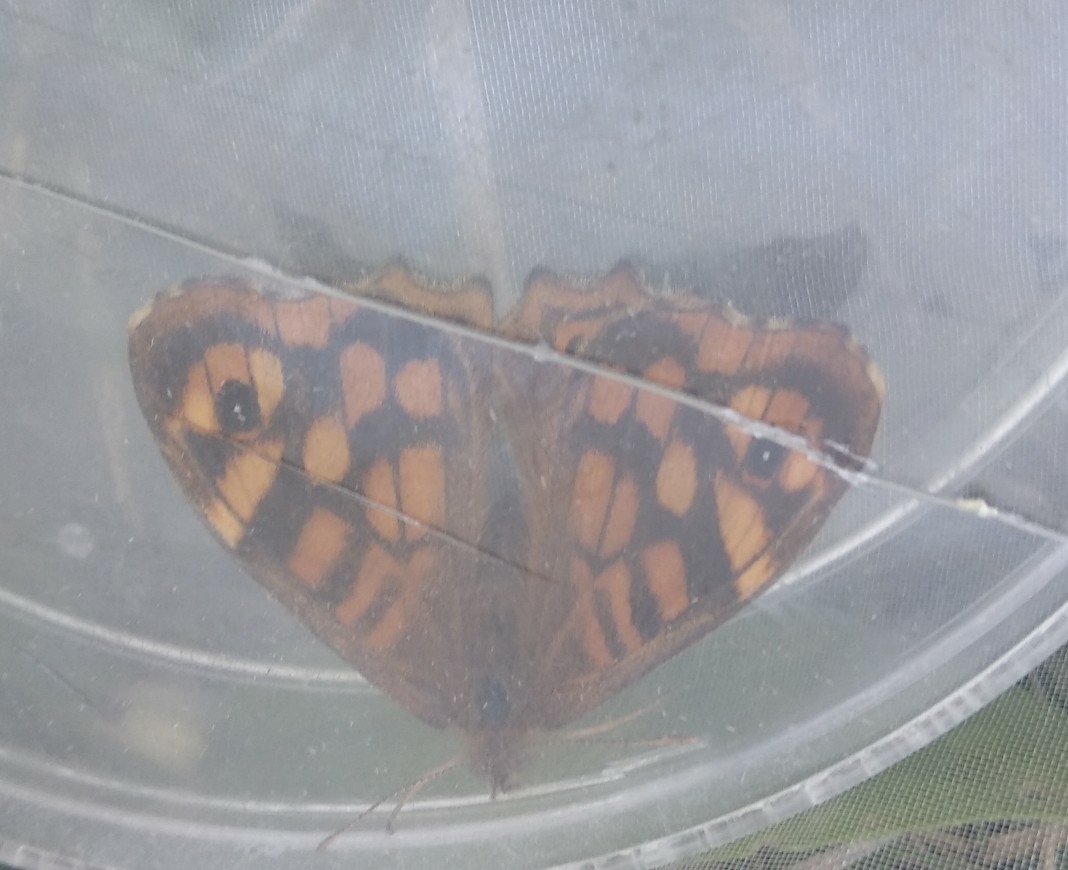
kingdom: Animalia
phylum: Arthropoda
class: Insecta
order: Lepidoptera
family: Nymphalidae
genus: Pararge
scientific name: Pararge aegeria
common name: Speckled wood
